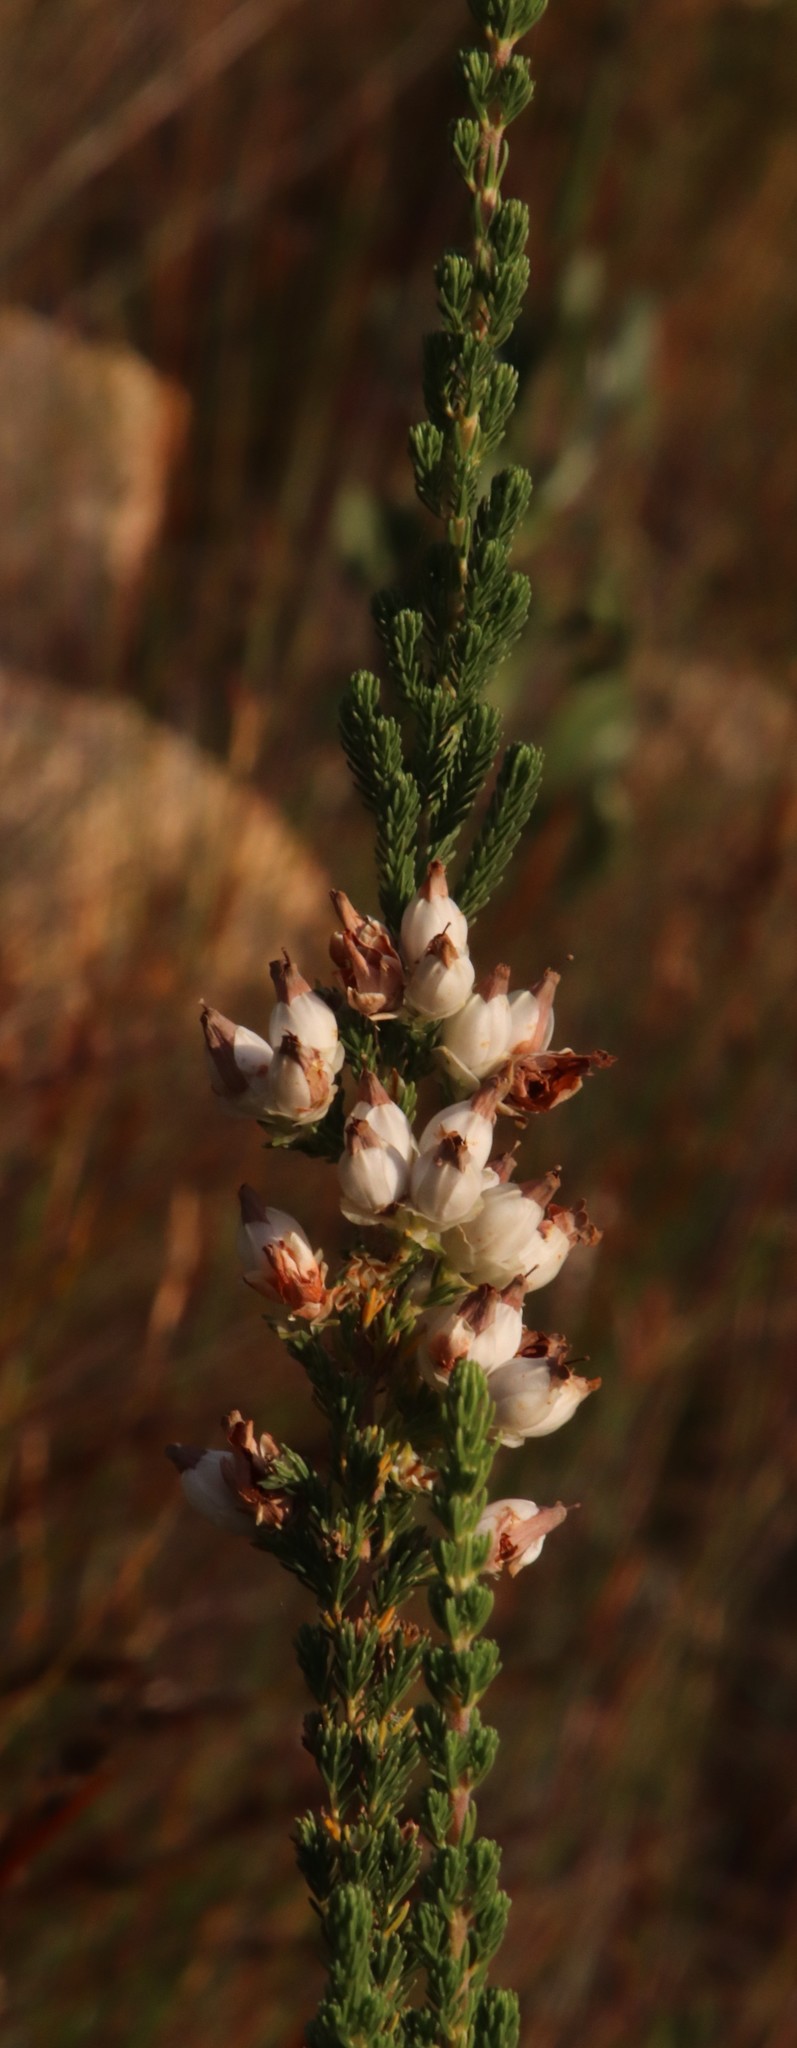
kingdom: Plantae
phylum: Tracheophyta
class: Magnoliopsida
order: Ericales
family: Ericaceae
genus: Erica
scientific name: Erica monsoniana
